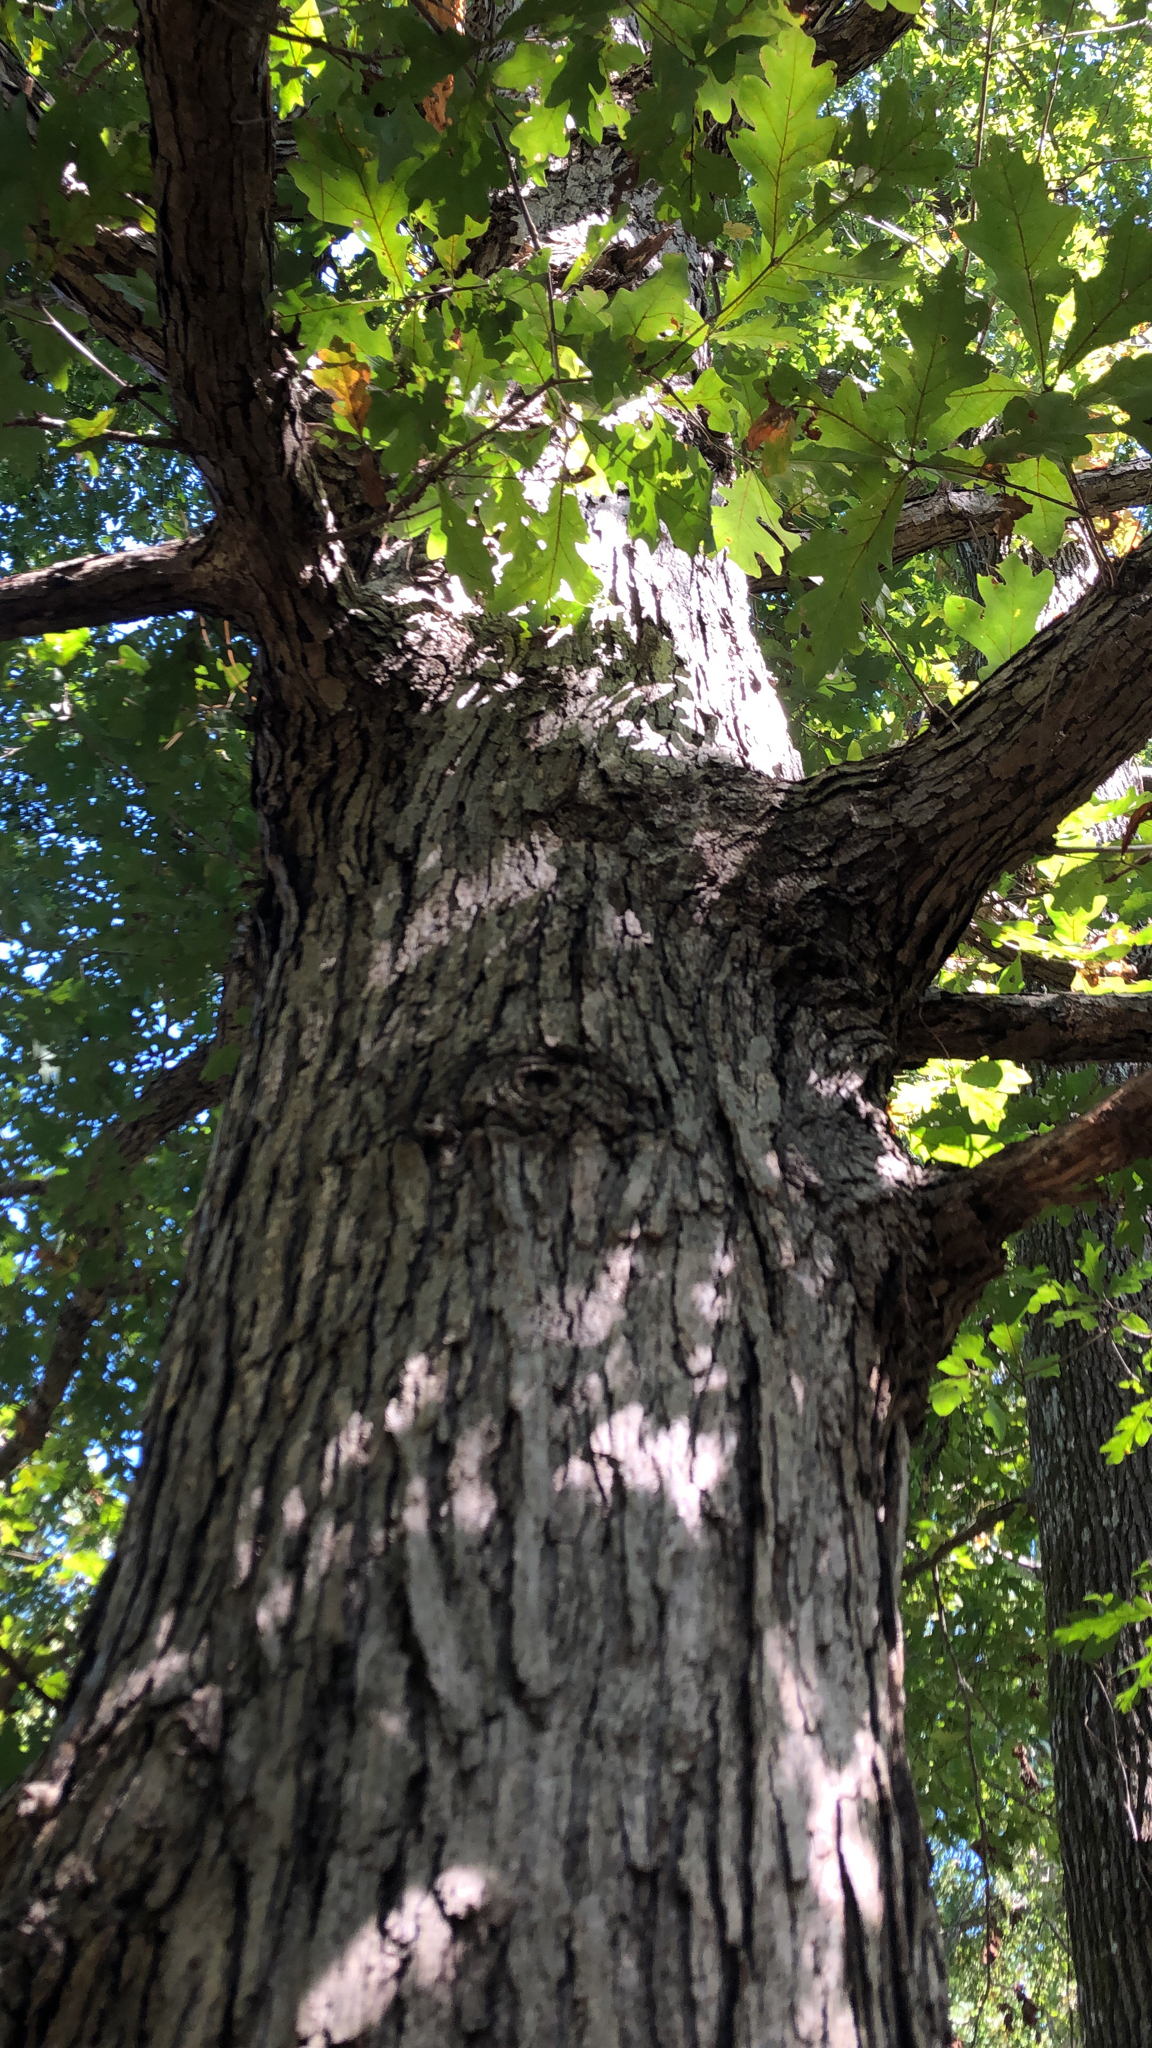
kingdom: Plantae
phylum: Tracheophyta
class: Magnoliopsida
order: Fagales
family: Fagaceae
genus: Quercus
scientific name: Quercus alba
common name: White oak
